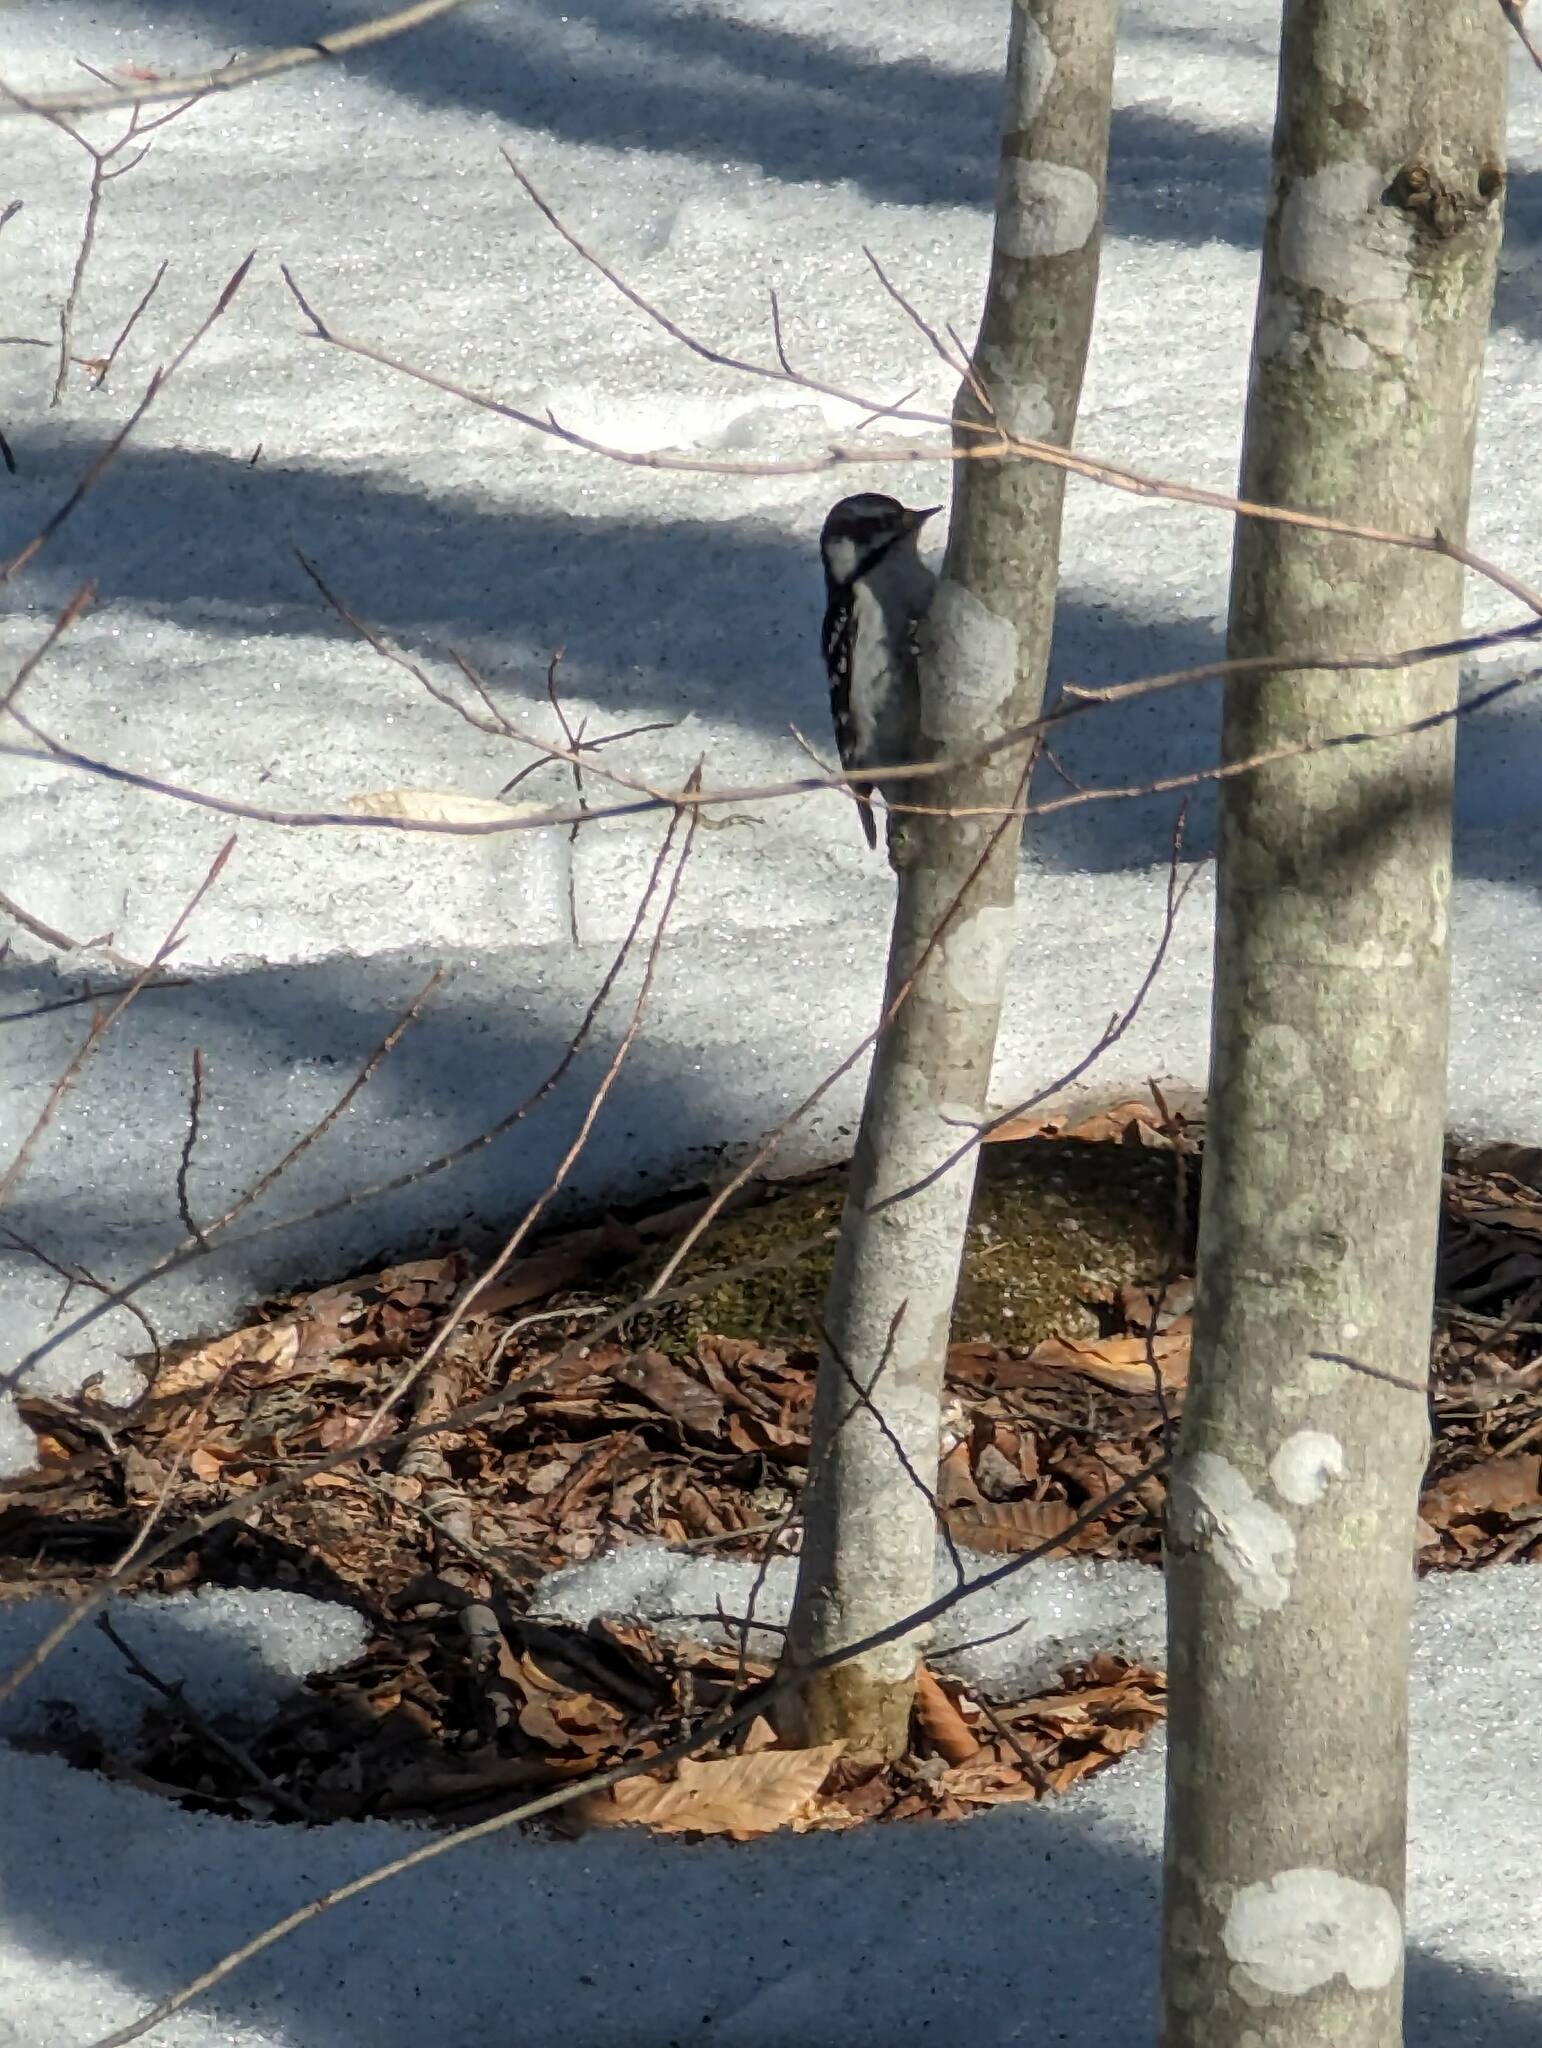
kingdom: Animalia
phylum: Chordata
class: Aves
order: Piciformes
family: Picidae
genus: Dryobates
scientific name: Dryobates pubescens
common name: Downy woodpecker
